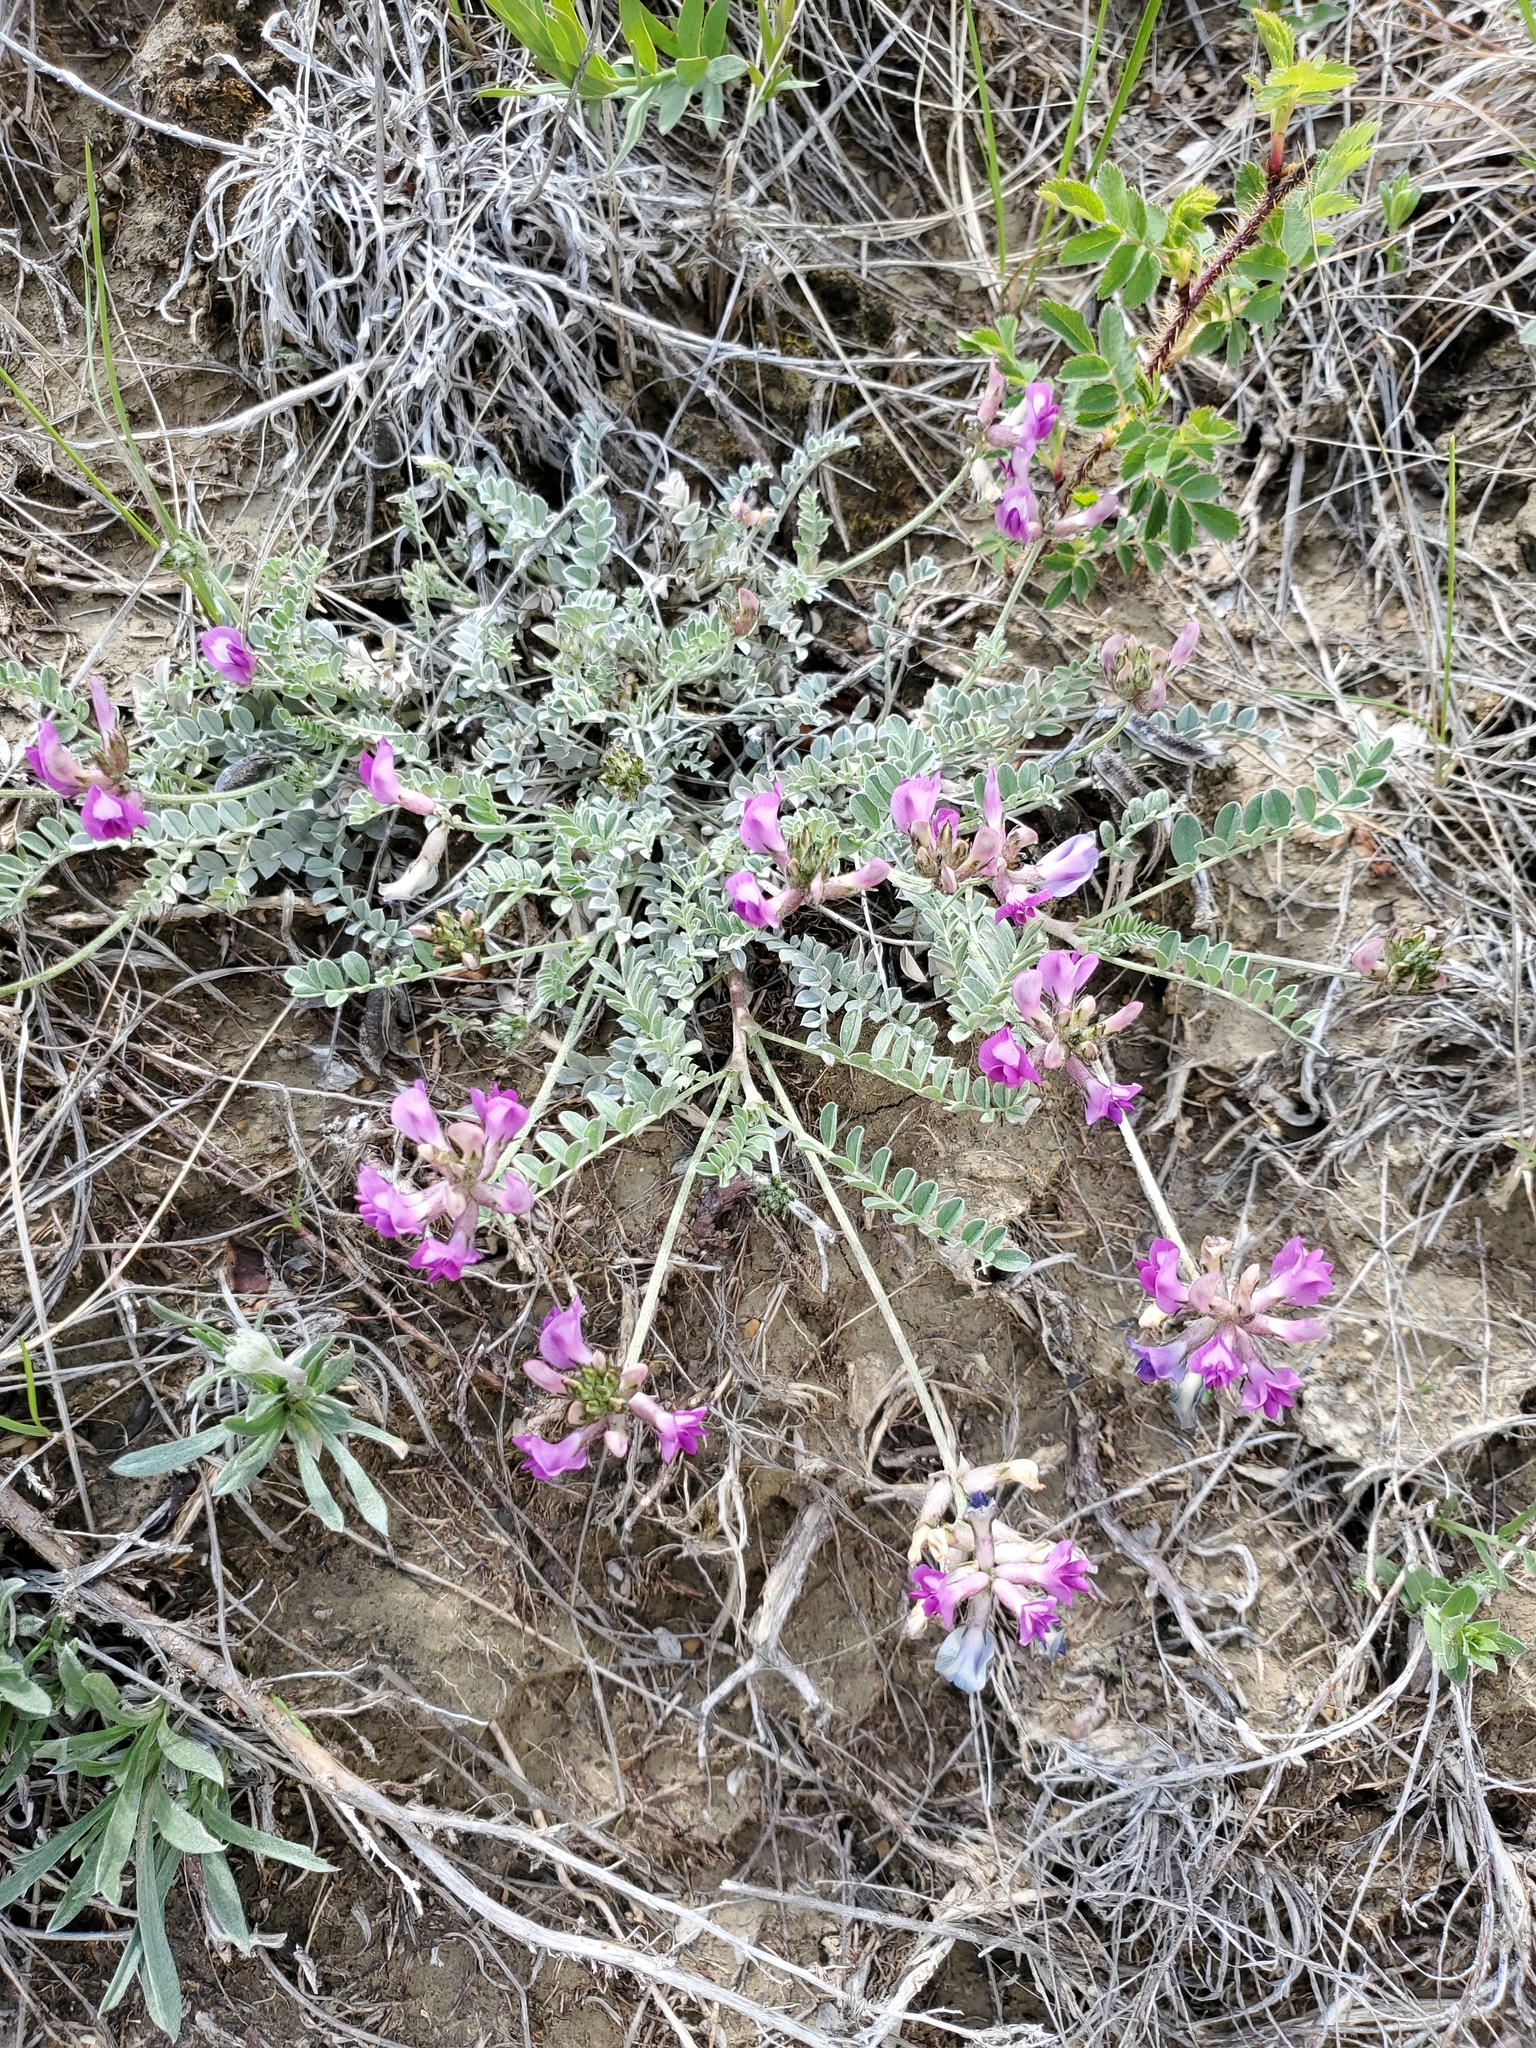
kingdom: Plantae
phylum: Tracheophyta
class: Magnoliopsida
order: Fabales
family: Fabaceae
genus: Astragalus
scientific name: Astragalus missouriensis
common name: Missouri milk-vetch
